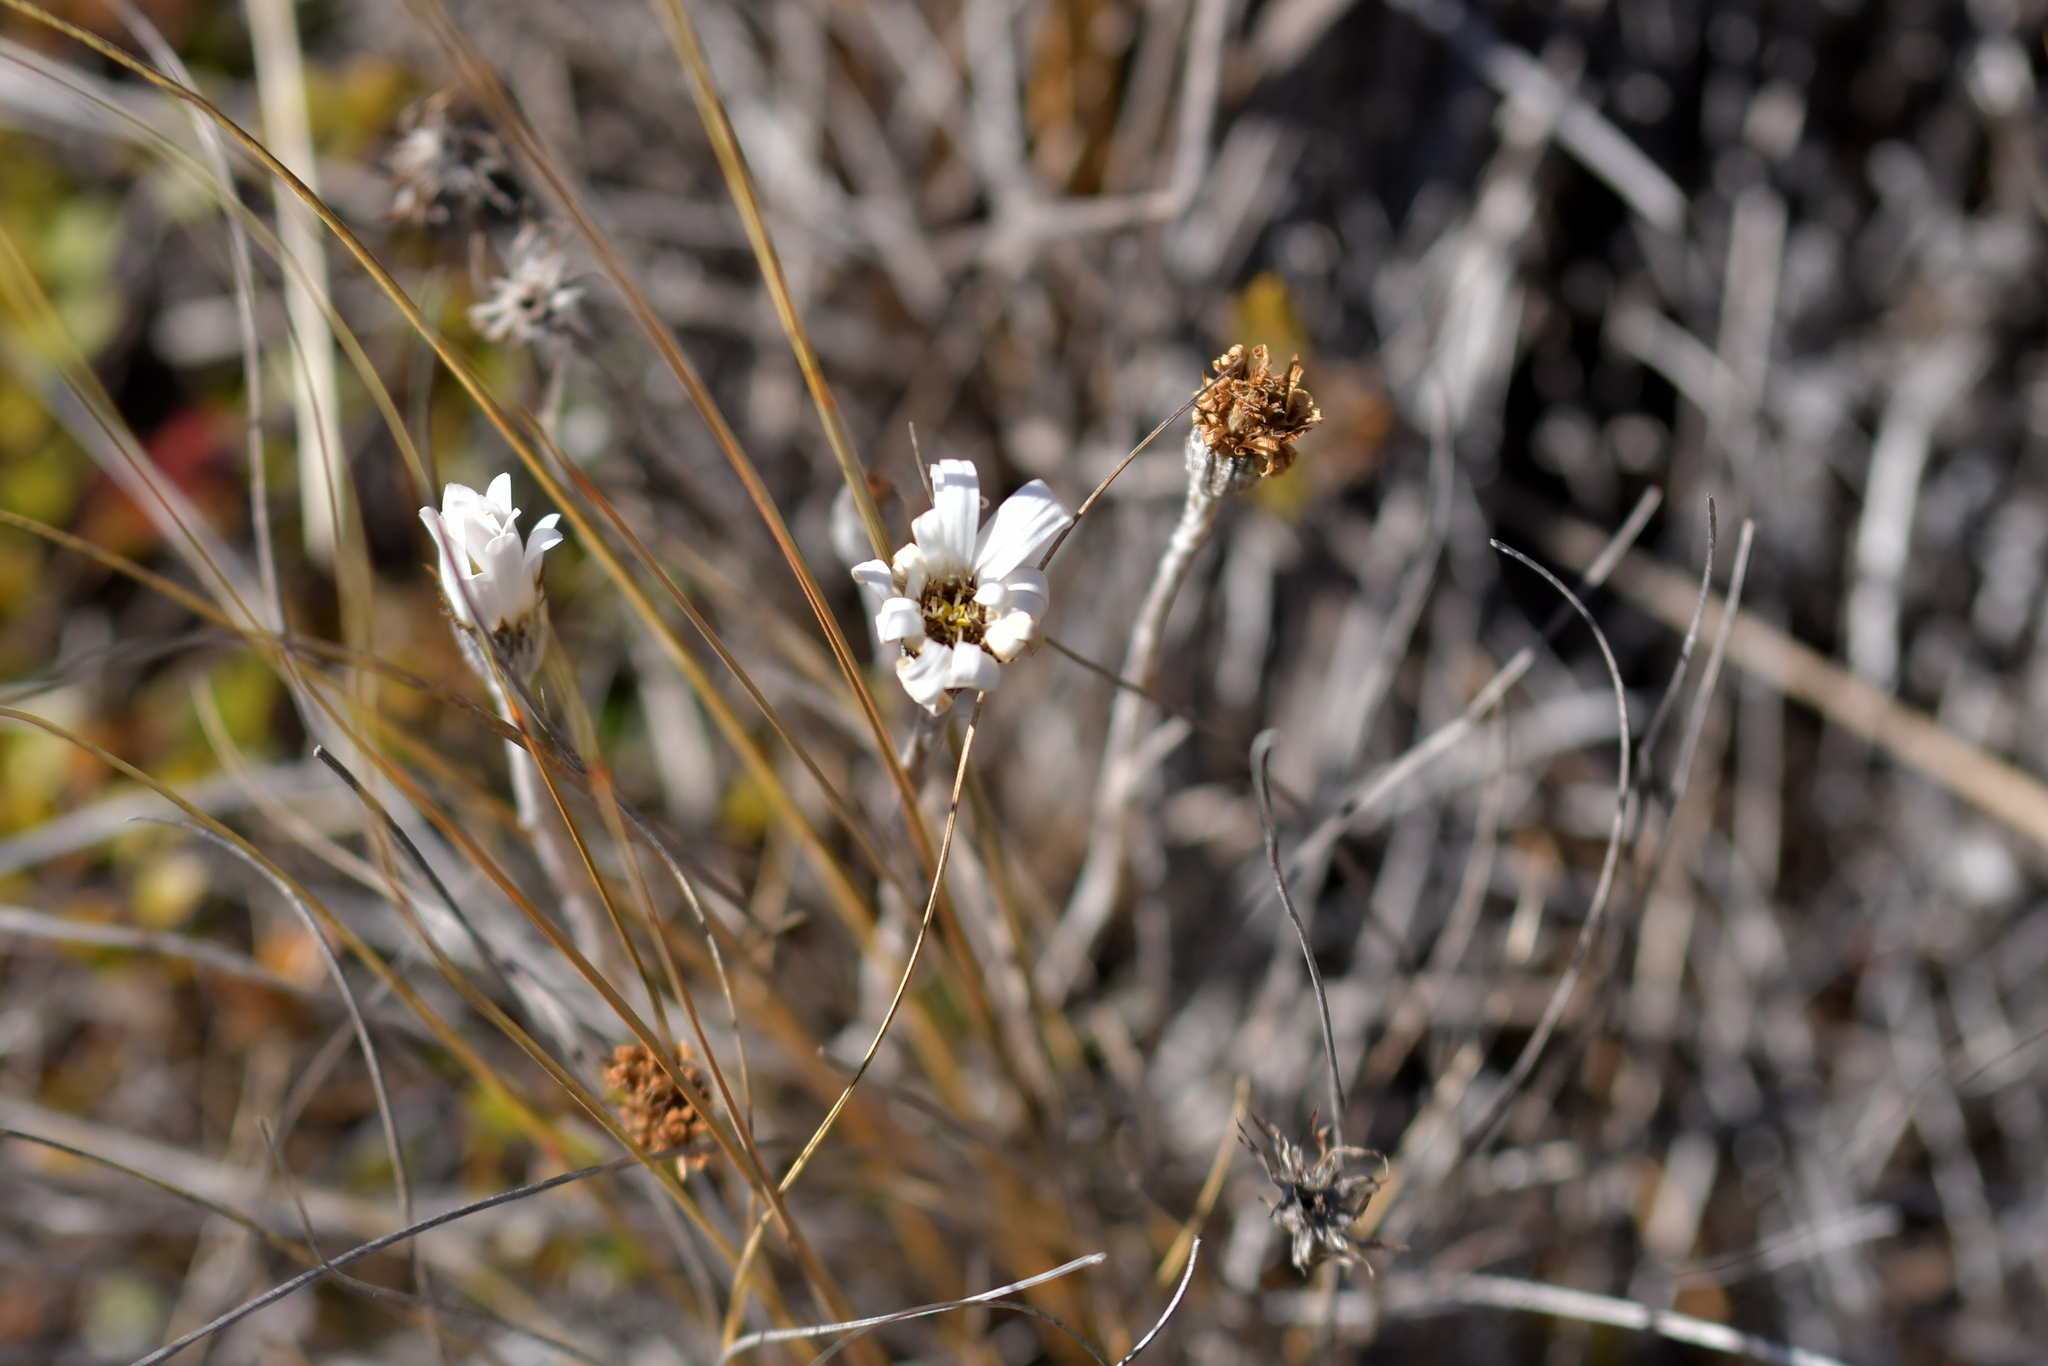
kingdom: Plantae
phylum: Tracheophyta
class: Magnoliopsida
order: Asterales
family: Asteraceae
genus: Celmisia
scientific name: Celmisia gracilenta
